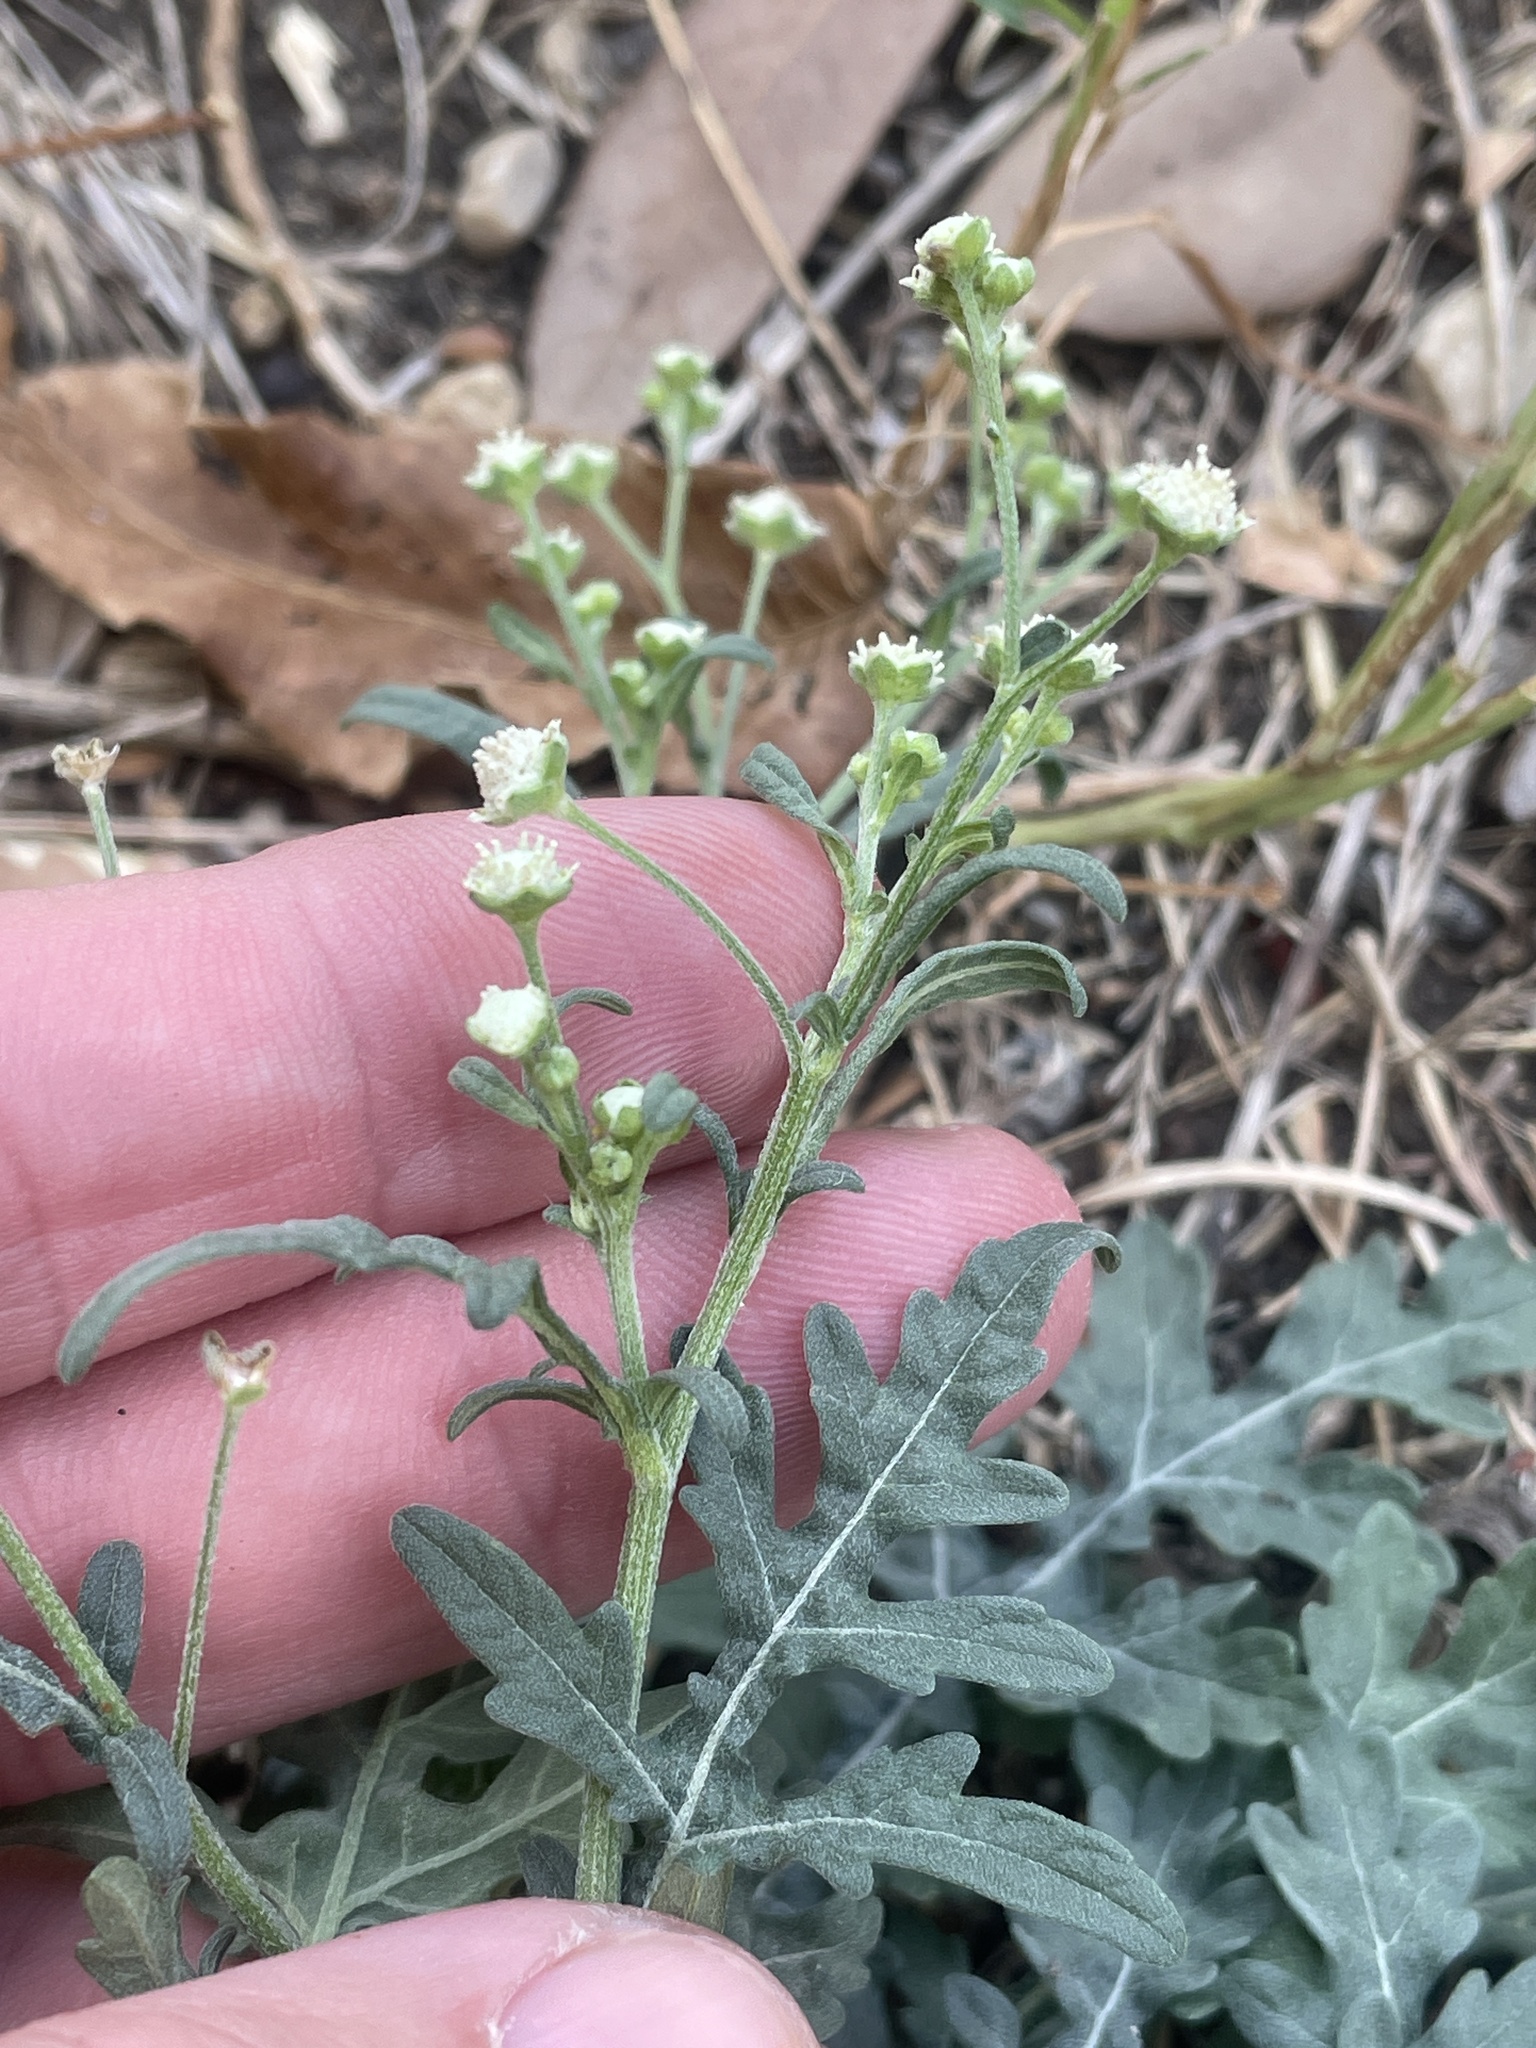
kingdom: Plantae
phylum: Tracheophyta
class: Magnoliopsida
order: Asterales
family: Asteraceae
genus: Parthenium
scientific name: Parthenium hysterophorus
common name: Santa maria feverfew
